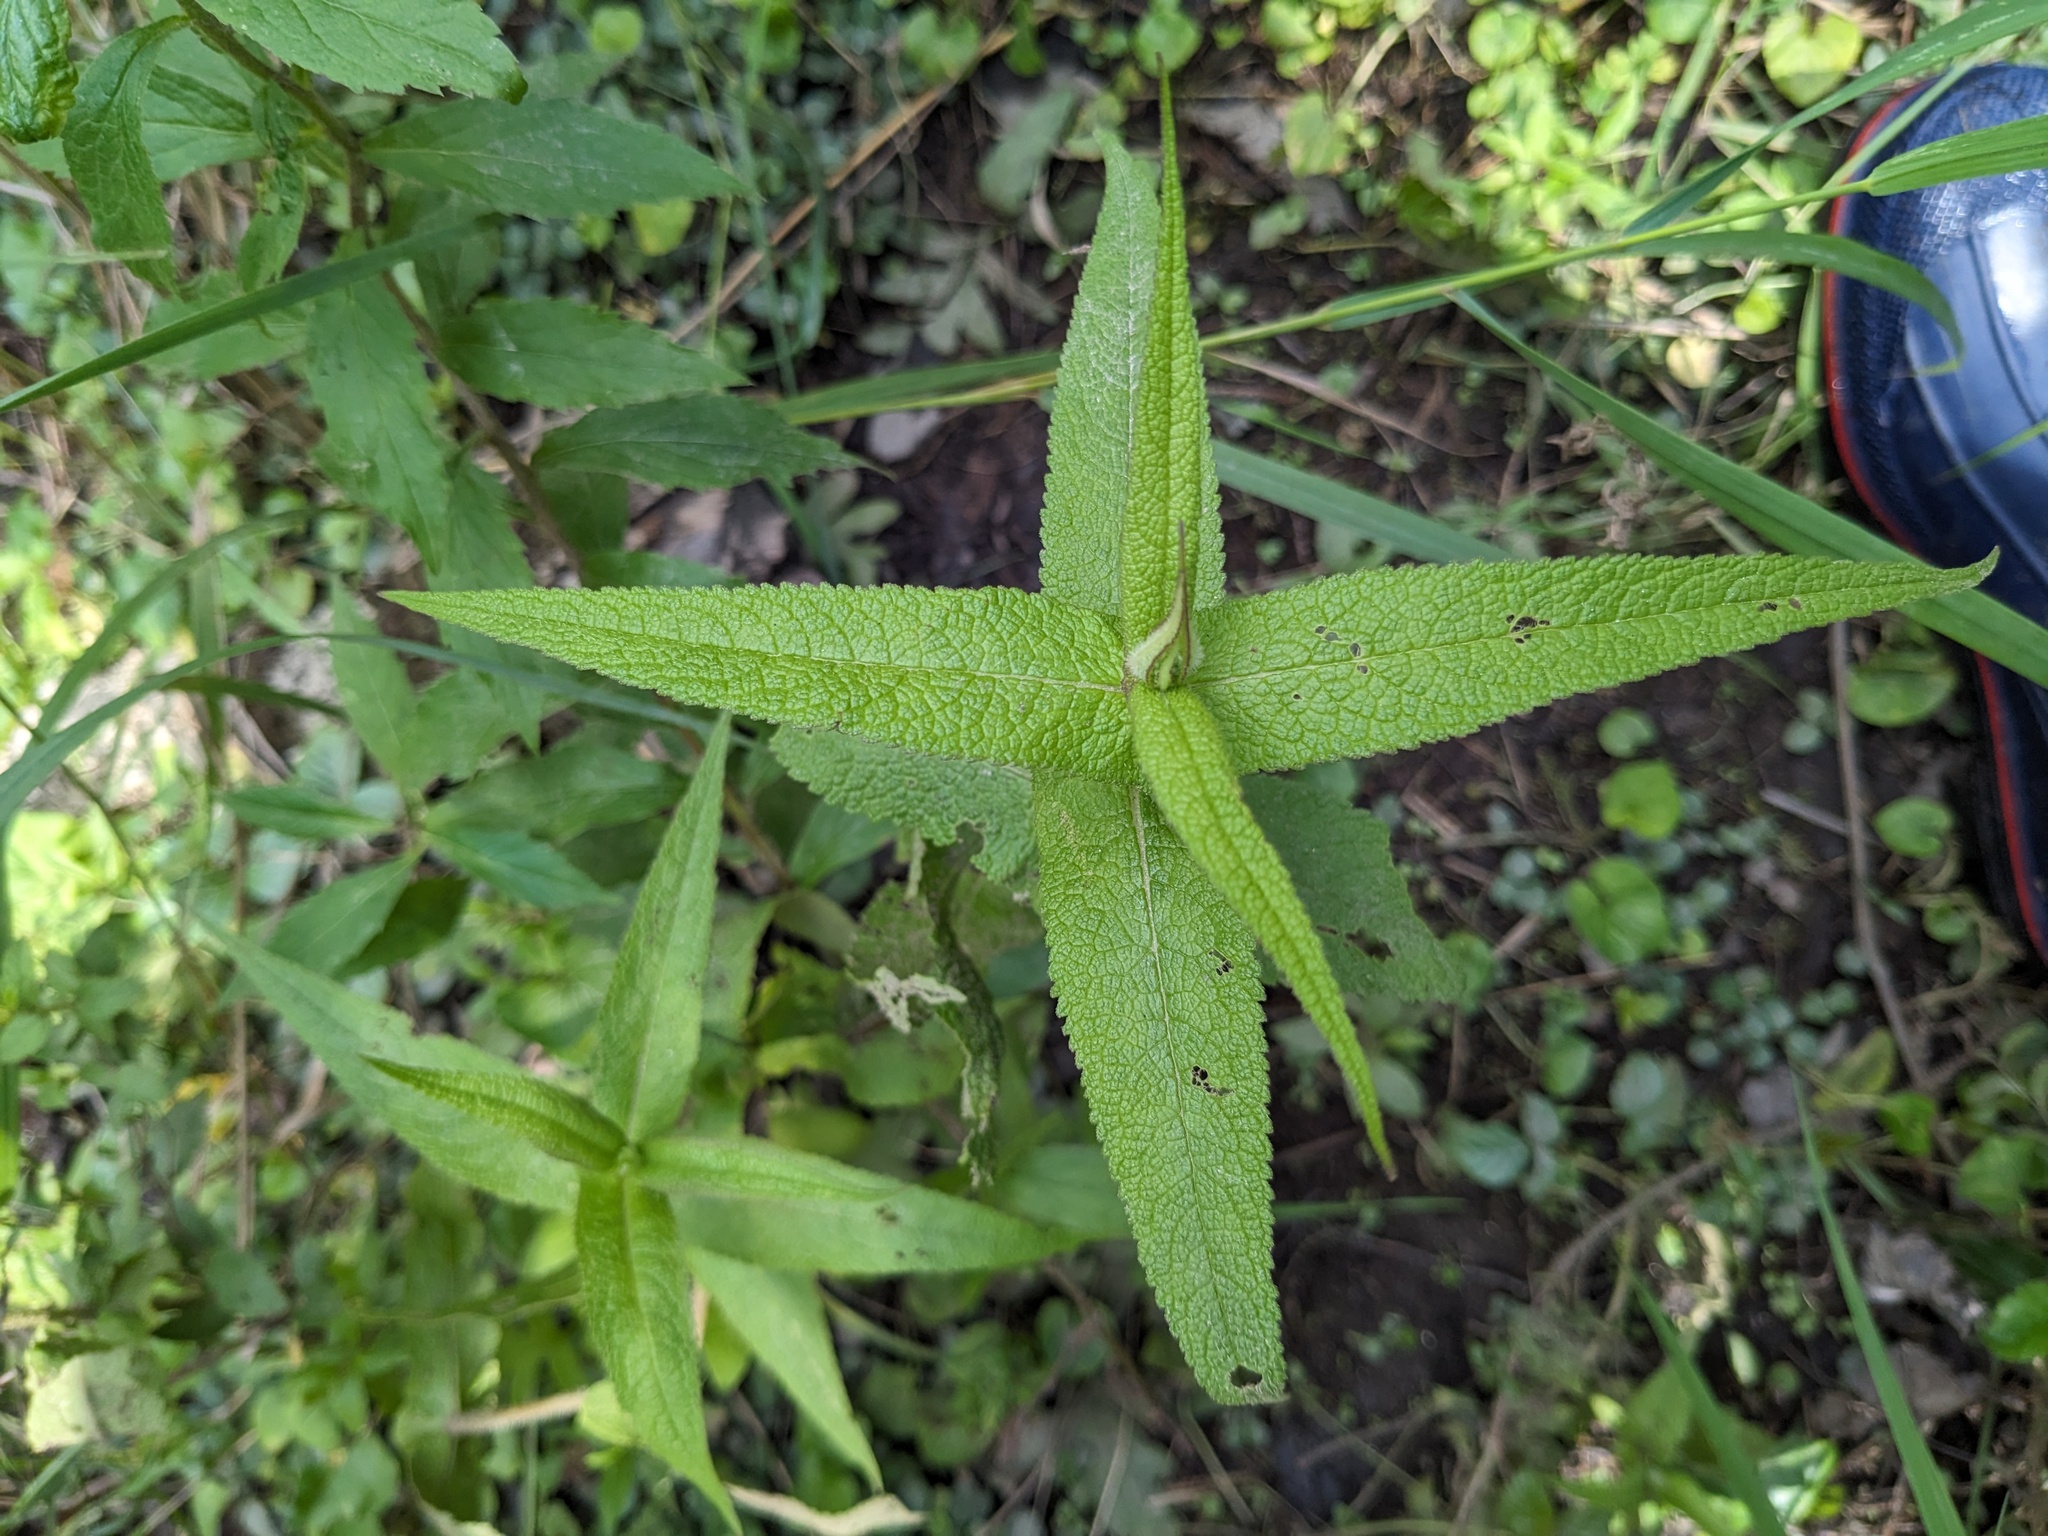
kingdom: Plantae
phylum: Tracheophyta
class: Magnoliopsida
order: Asterales
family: Asteraceae
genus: Eupatorium
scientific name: Eupatorium perfoliatum
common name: Boneset
